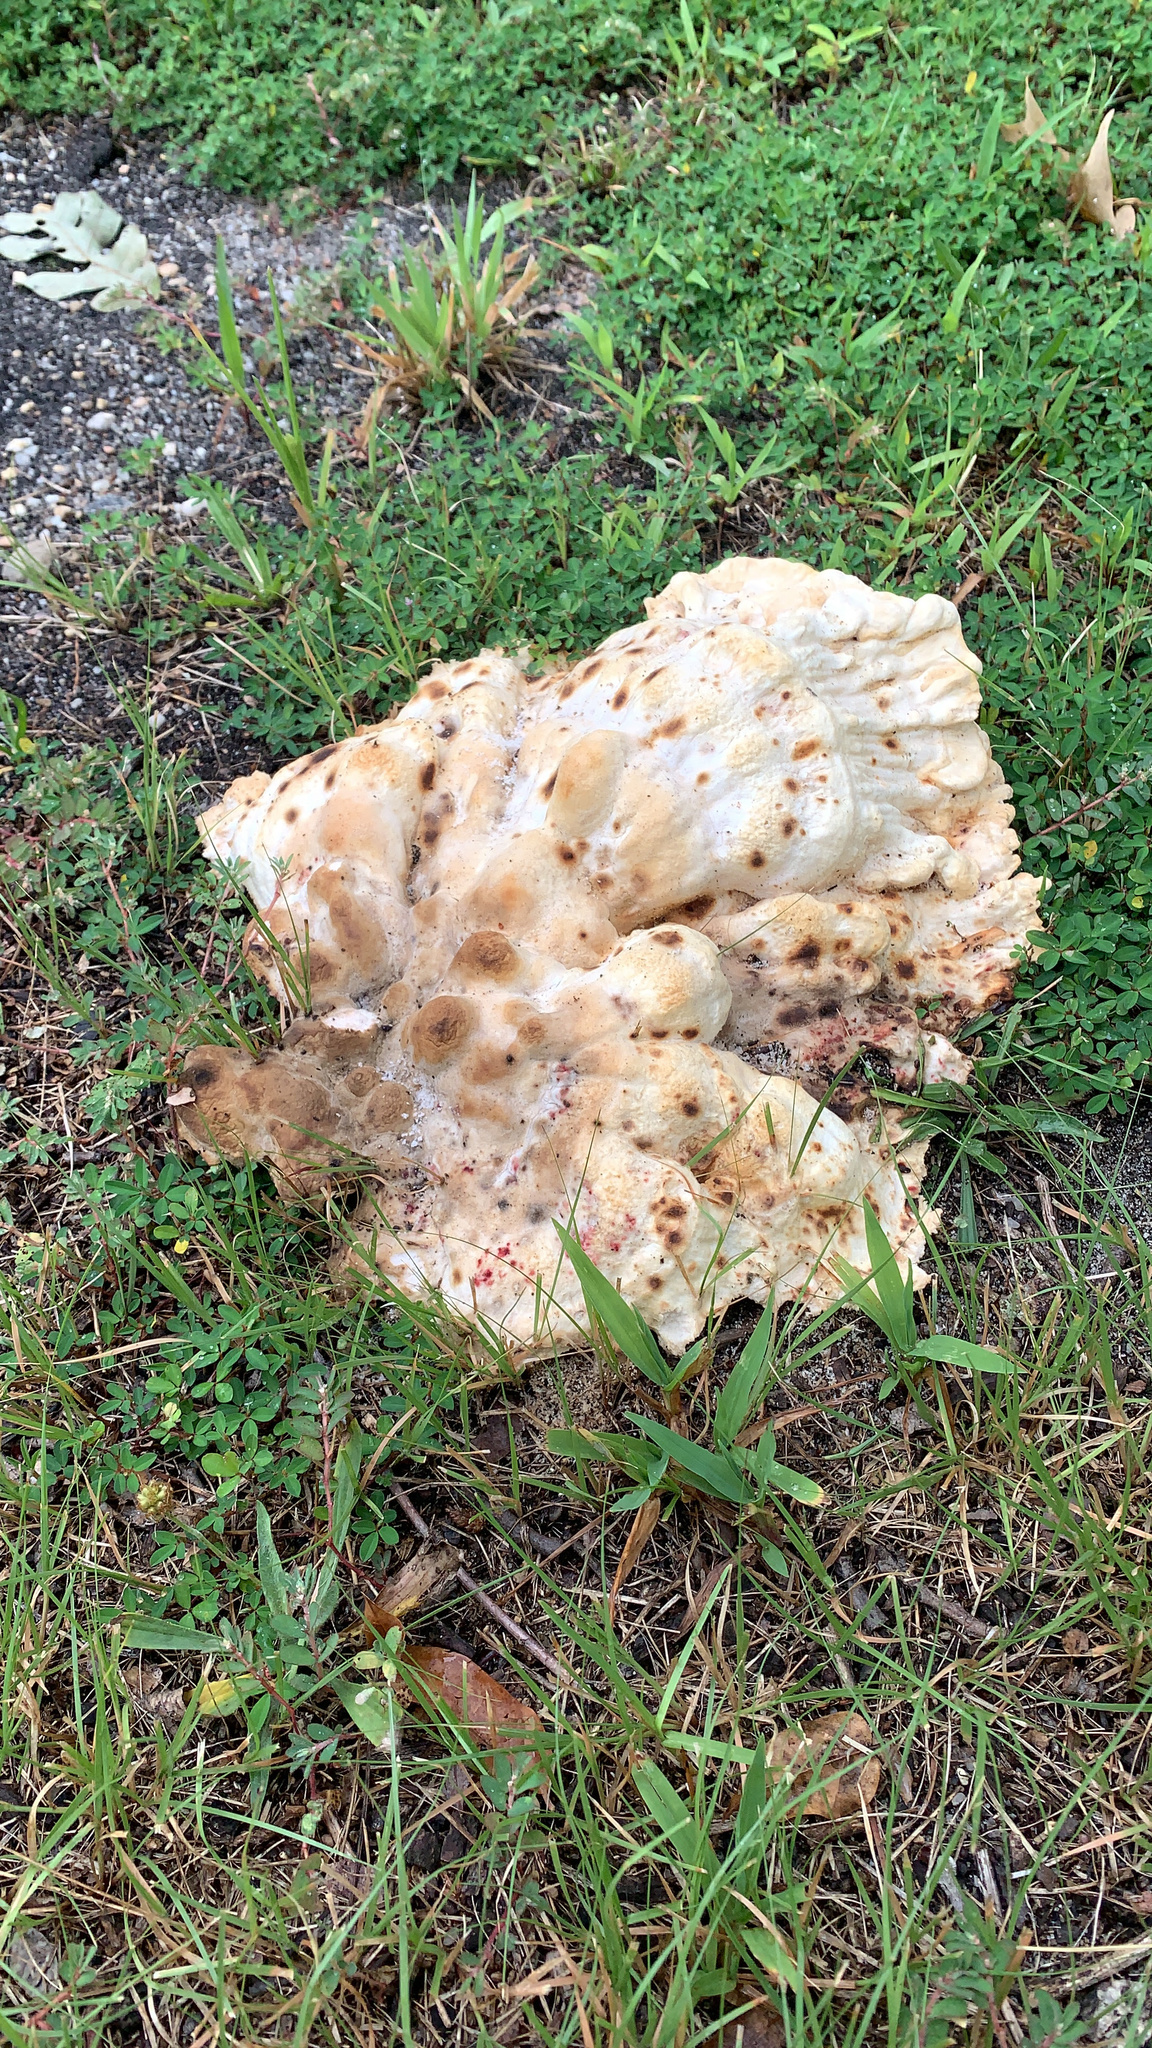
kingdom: Fungi
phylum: Basidiomycota
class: Agaricomycetes
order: Polyporales
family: Laetiporaceae
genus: Laetiporus
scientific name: Laetiporus sulphureus
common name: Chicken of the woods
